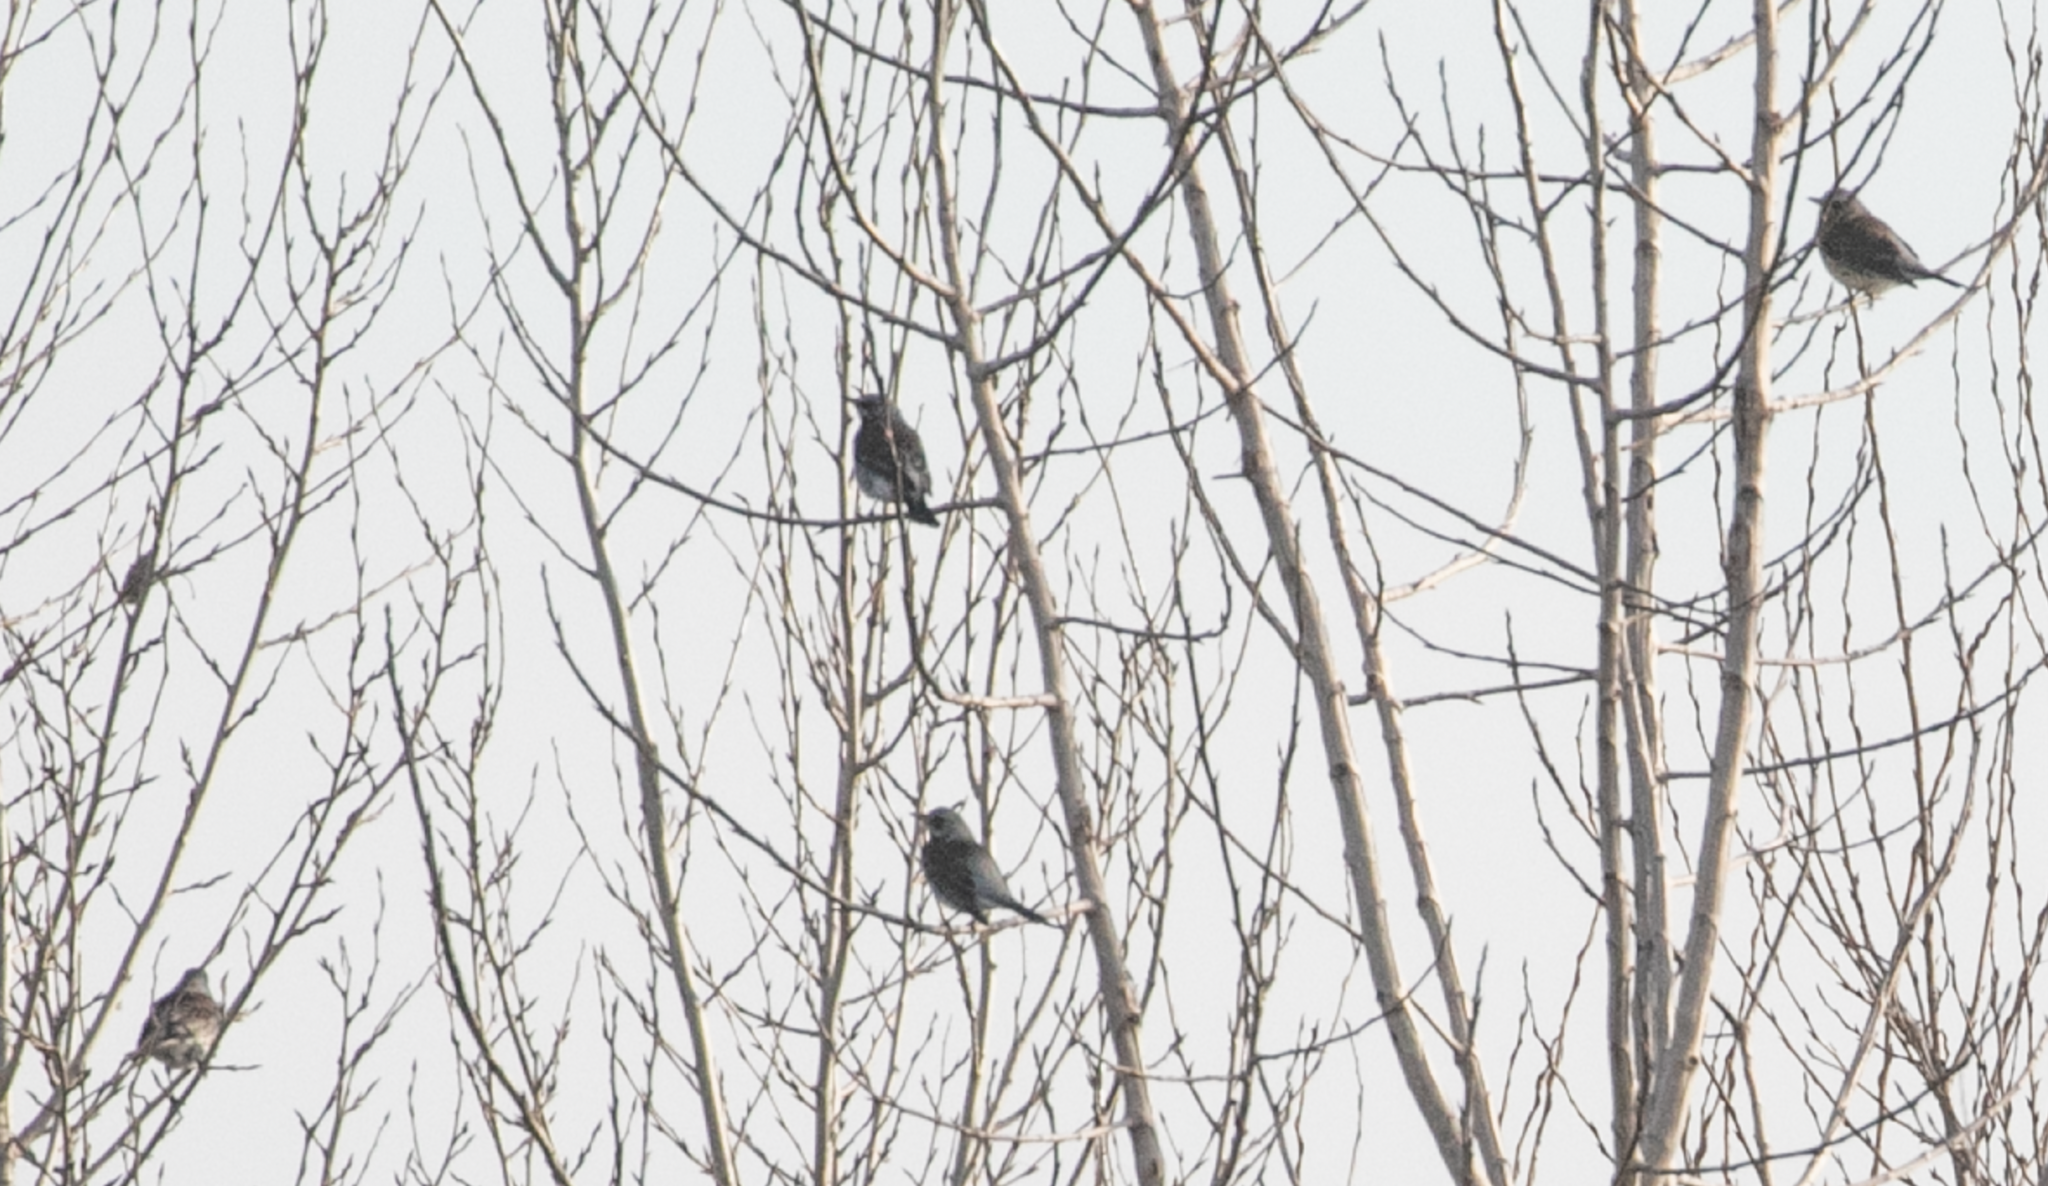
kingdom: Animalia
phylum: Chordata
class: Aves
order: Passeriformes
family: Turdidae
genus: Turdus
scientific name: Turdus pilaris
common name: Fieldfare
